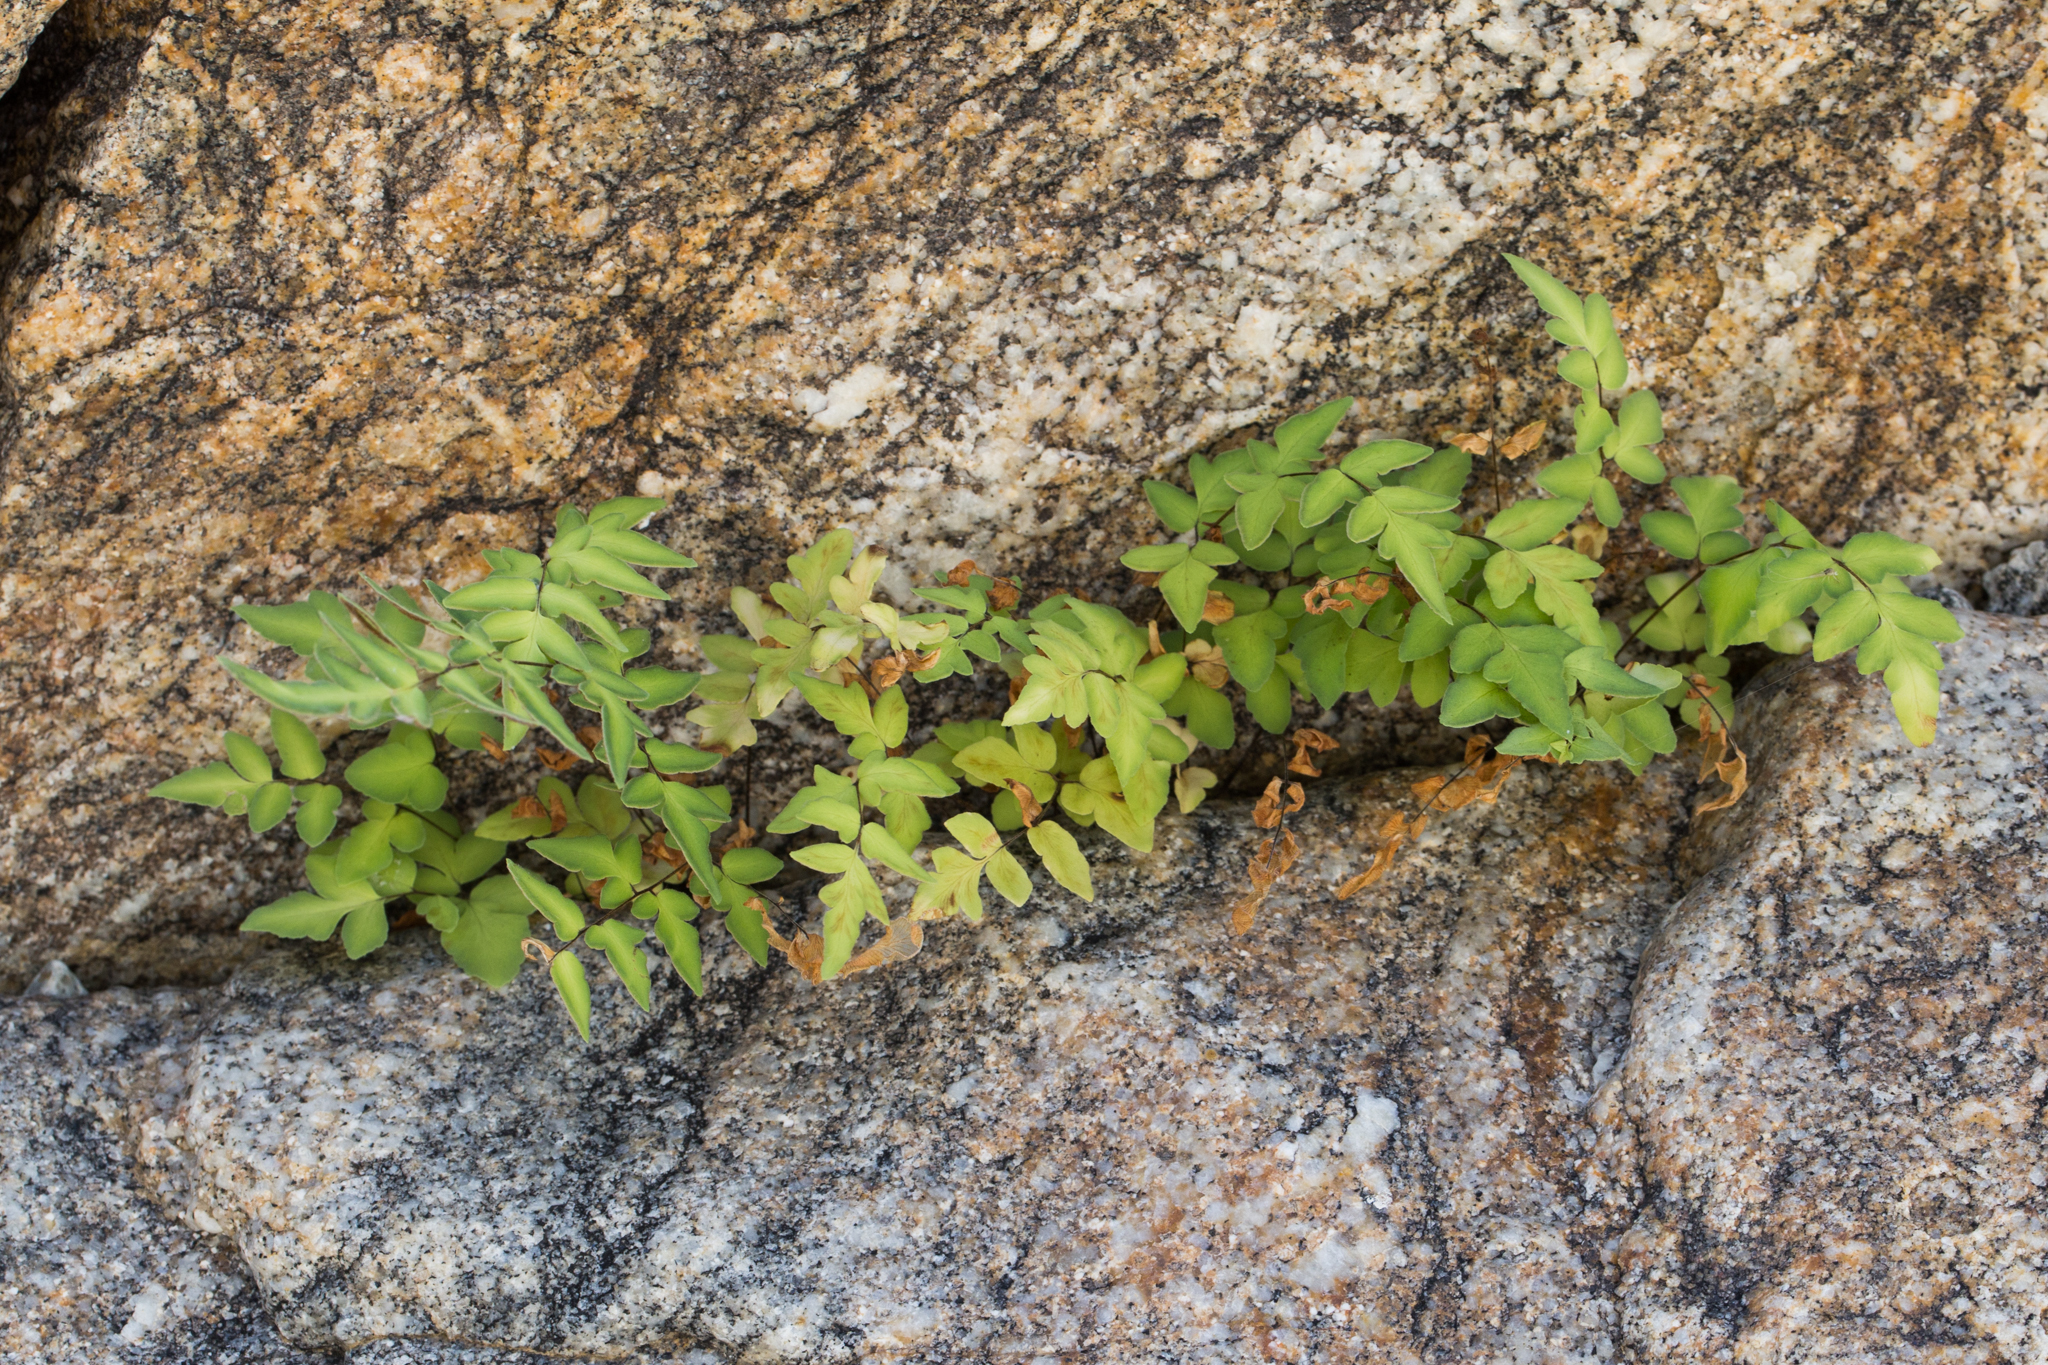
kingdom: Plantae
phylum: Tracheophyta
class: Polypodiopsida
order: Polypodiales
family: Pteridaceae
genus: Cheilanthes
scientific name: Cheilanthes lozanoi
